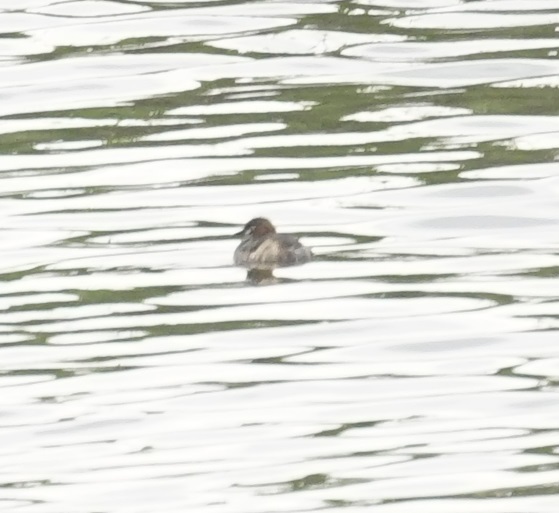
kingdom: Animalia
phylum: Chordata
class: Aves
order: Podicipediformes
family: Podicipedidae
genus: Tachybaptus
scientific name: Tachybaptus ruficollis
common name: Little grebe
